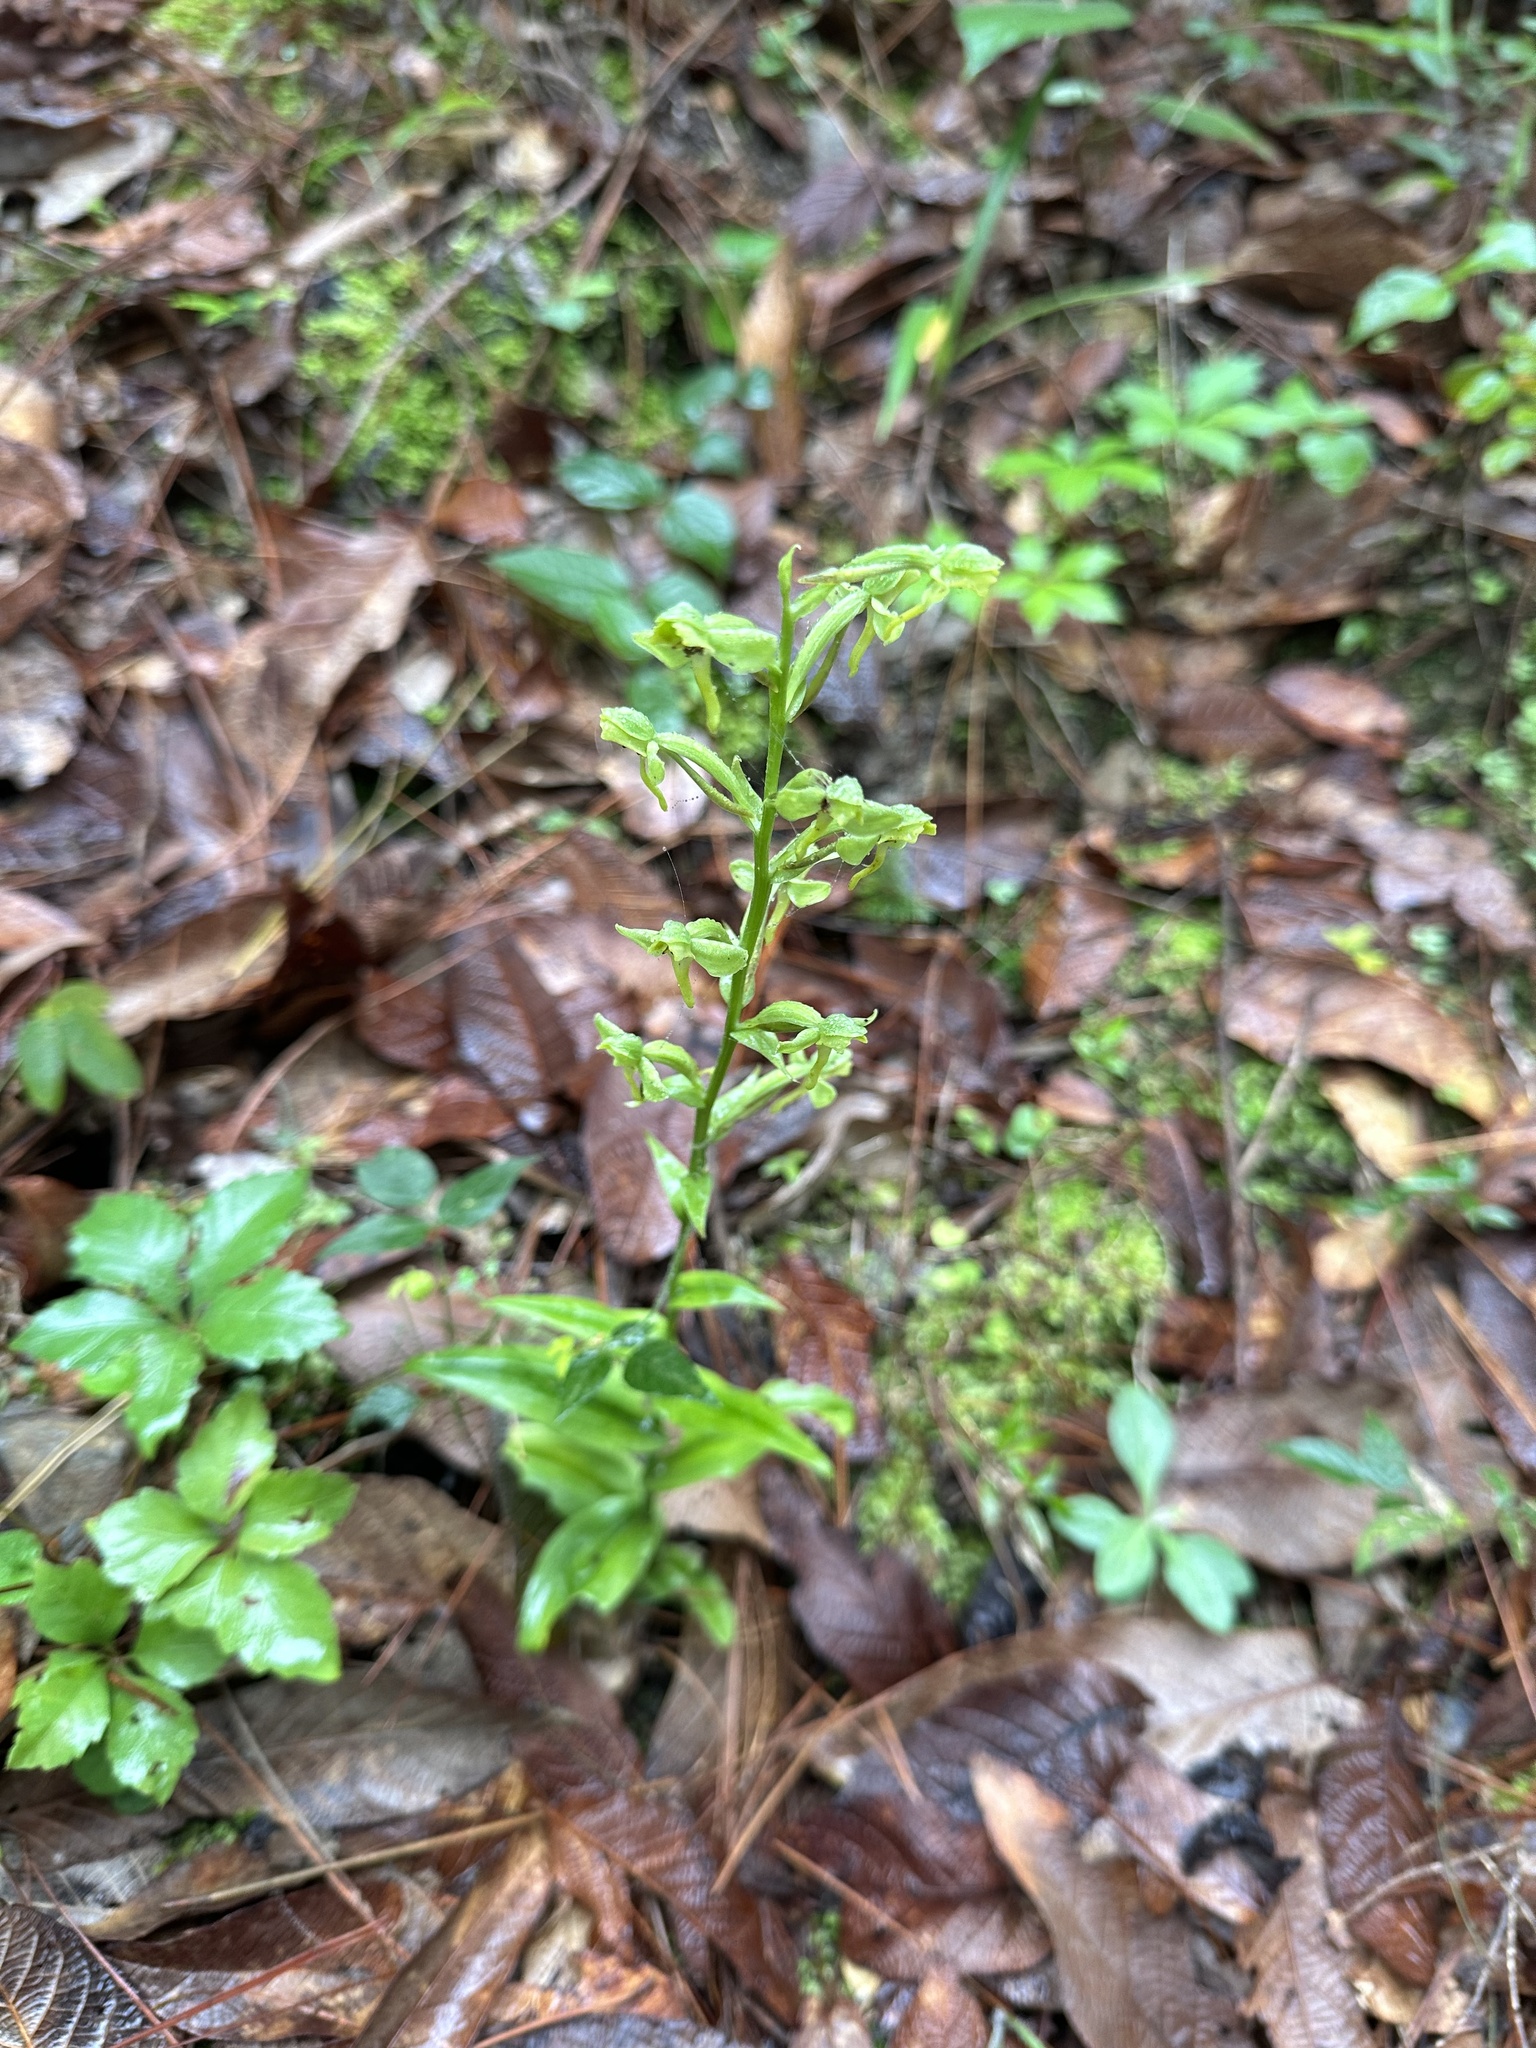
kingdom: Plantae
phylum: Tracheophyta
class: Liliopsida
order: Asparagales
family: Orchidaceae
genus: Habenaria
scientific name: Habenaria floribunda
